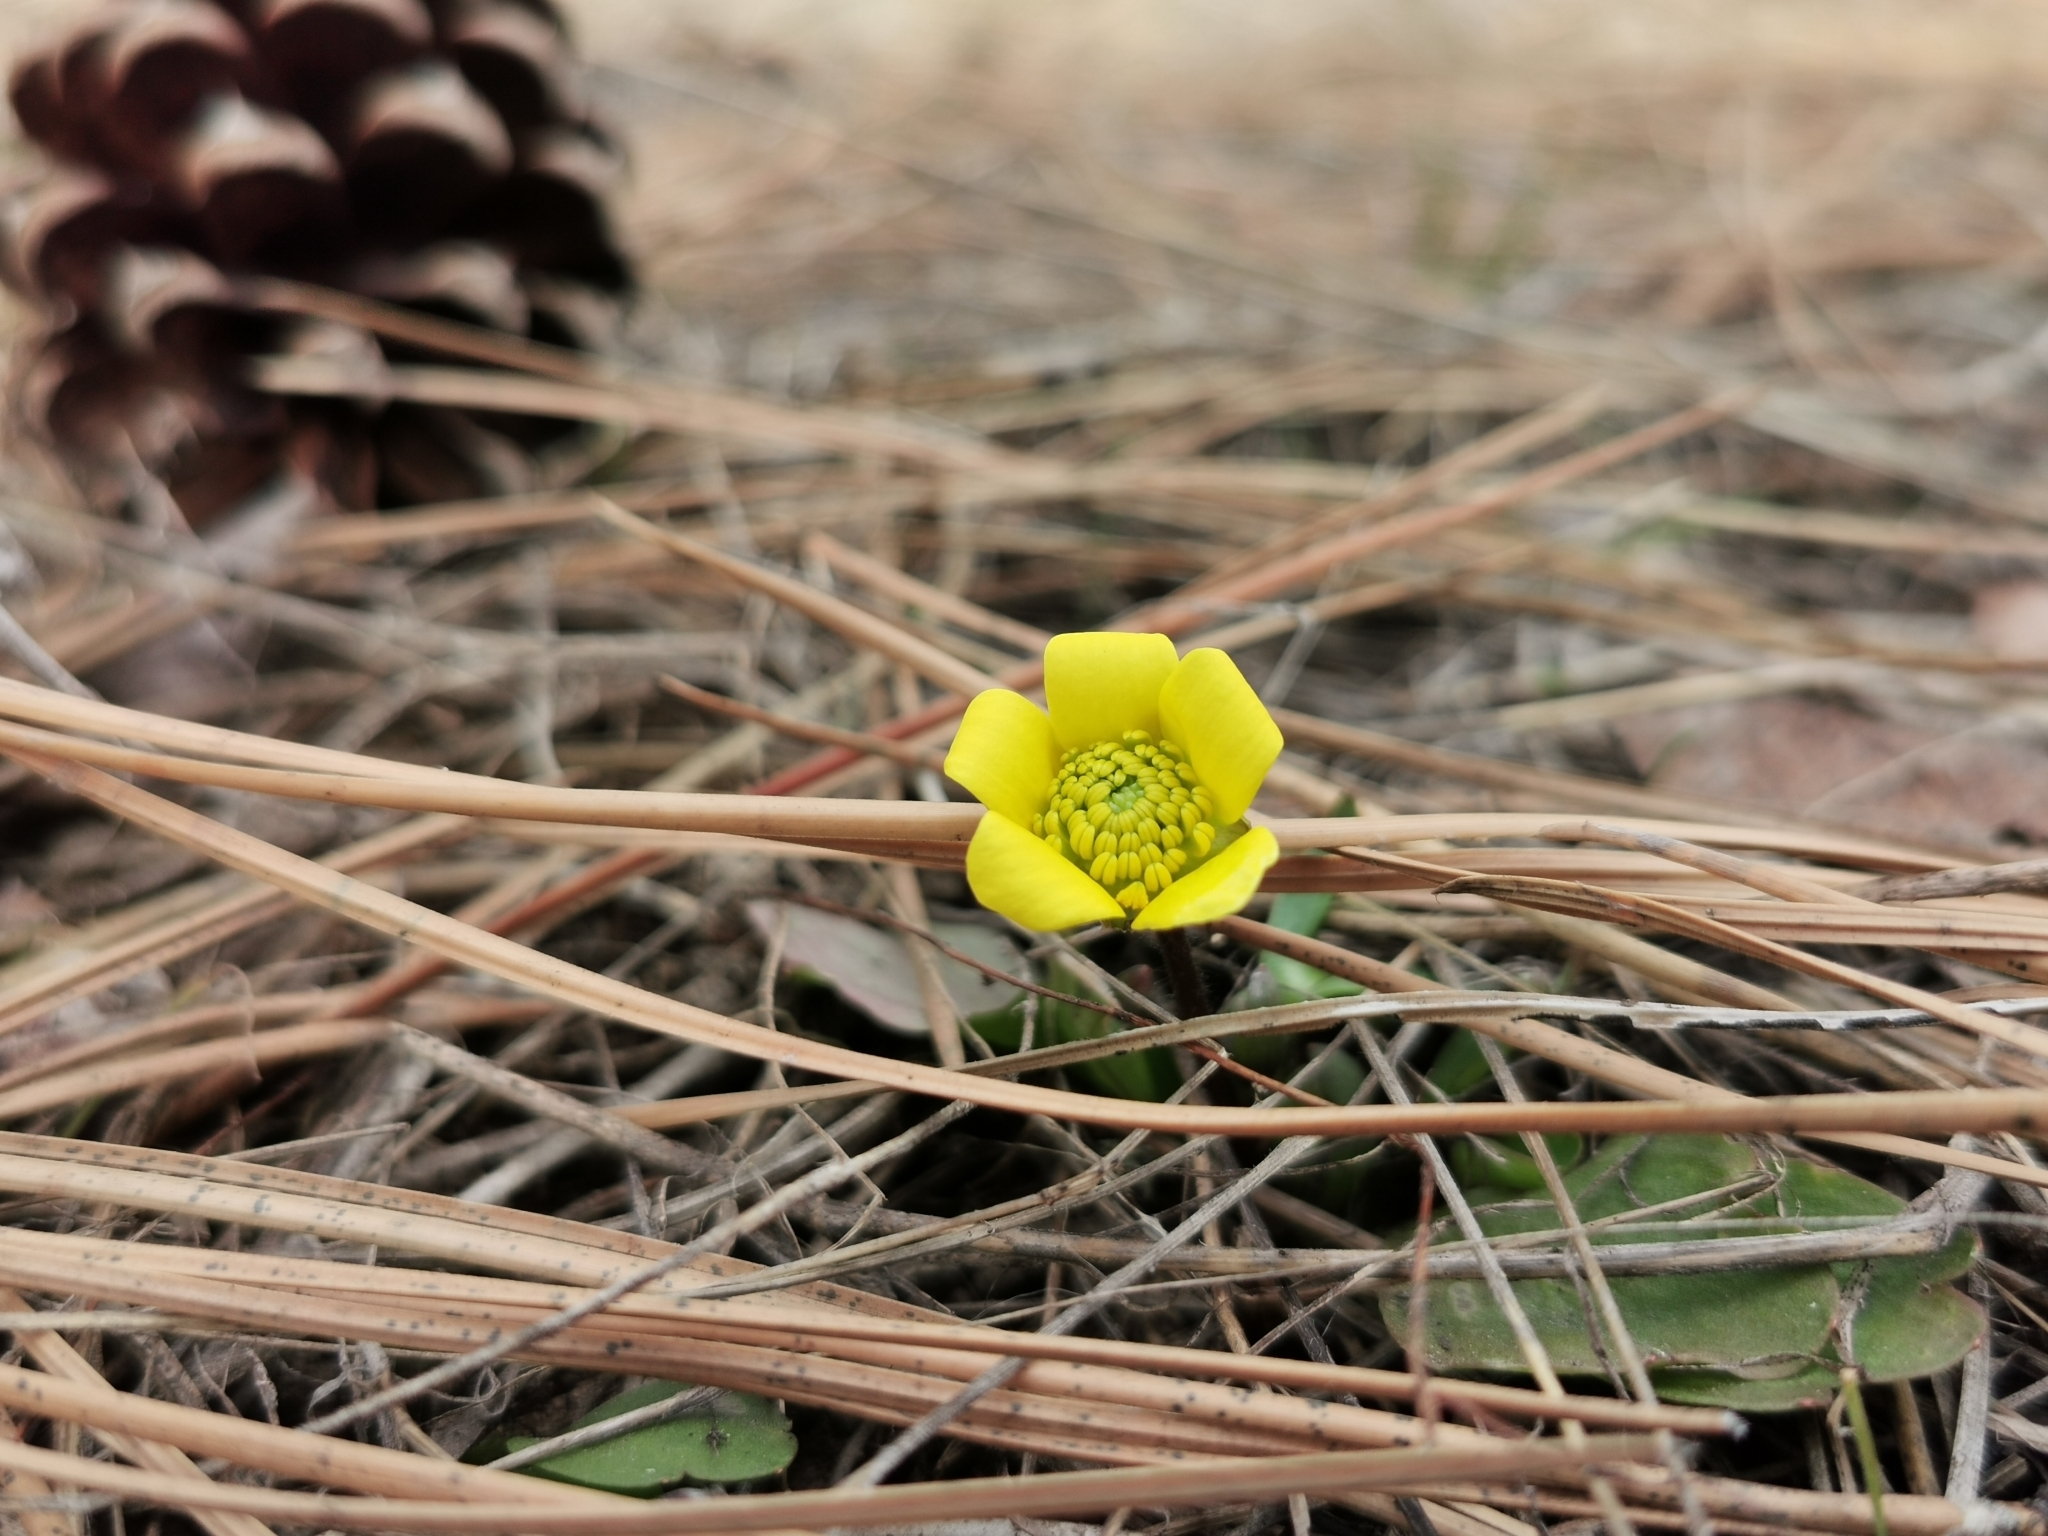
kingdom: Plantae
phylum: Tracheophyta
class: Magnoliopsida
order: Ranunculales
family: Ranunculaceae
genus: Ranunculus
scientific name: Ranunculus glaberrimus
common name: Sagebrush buttercup
